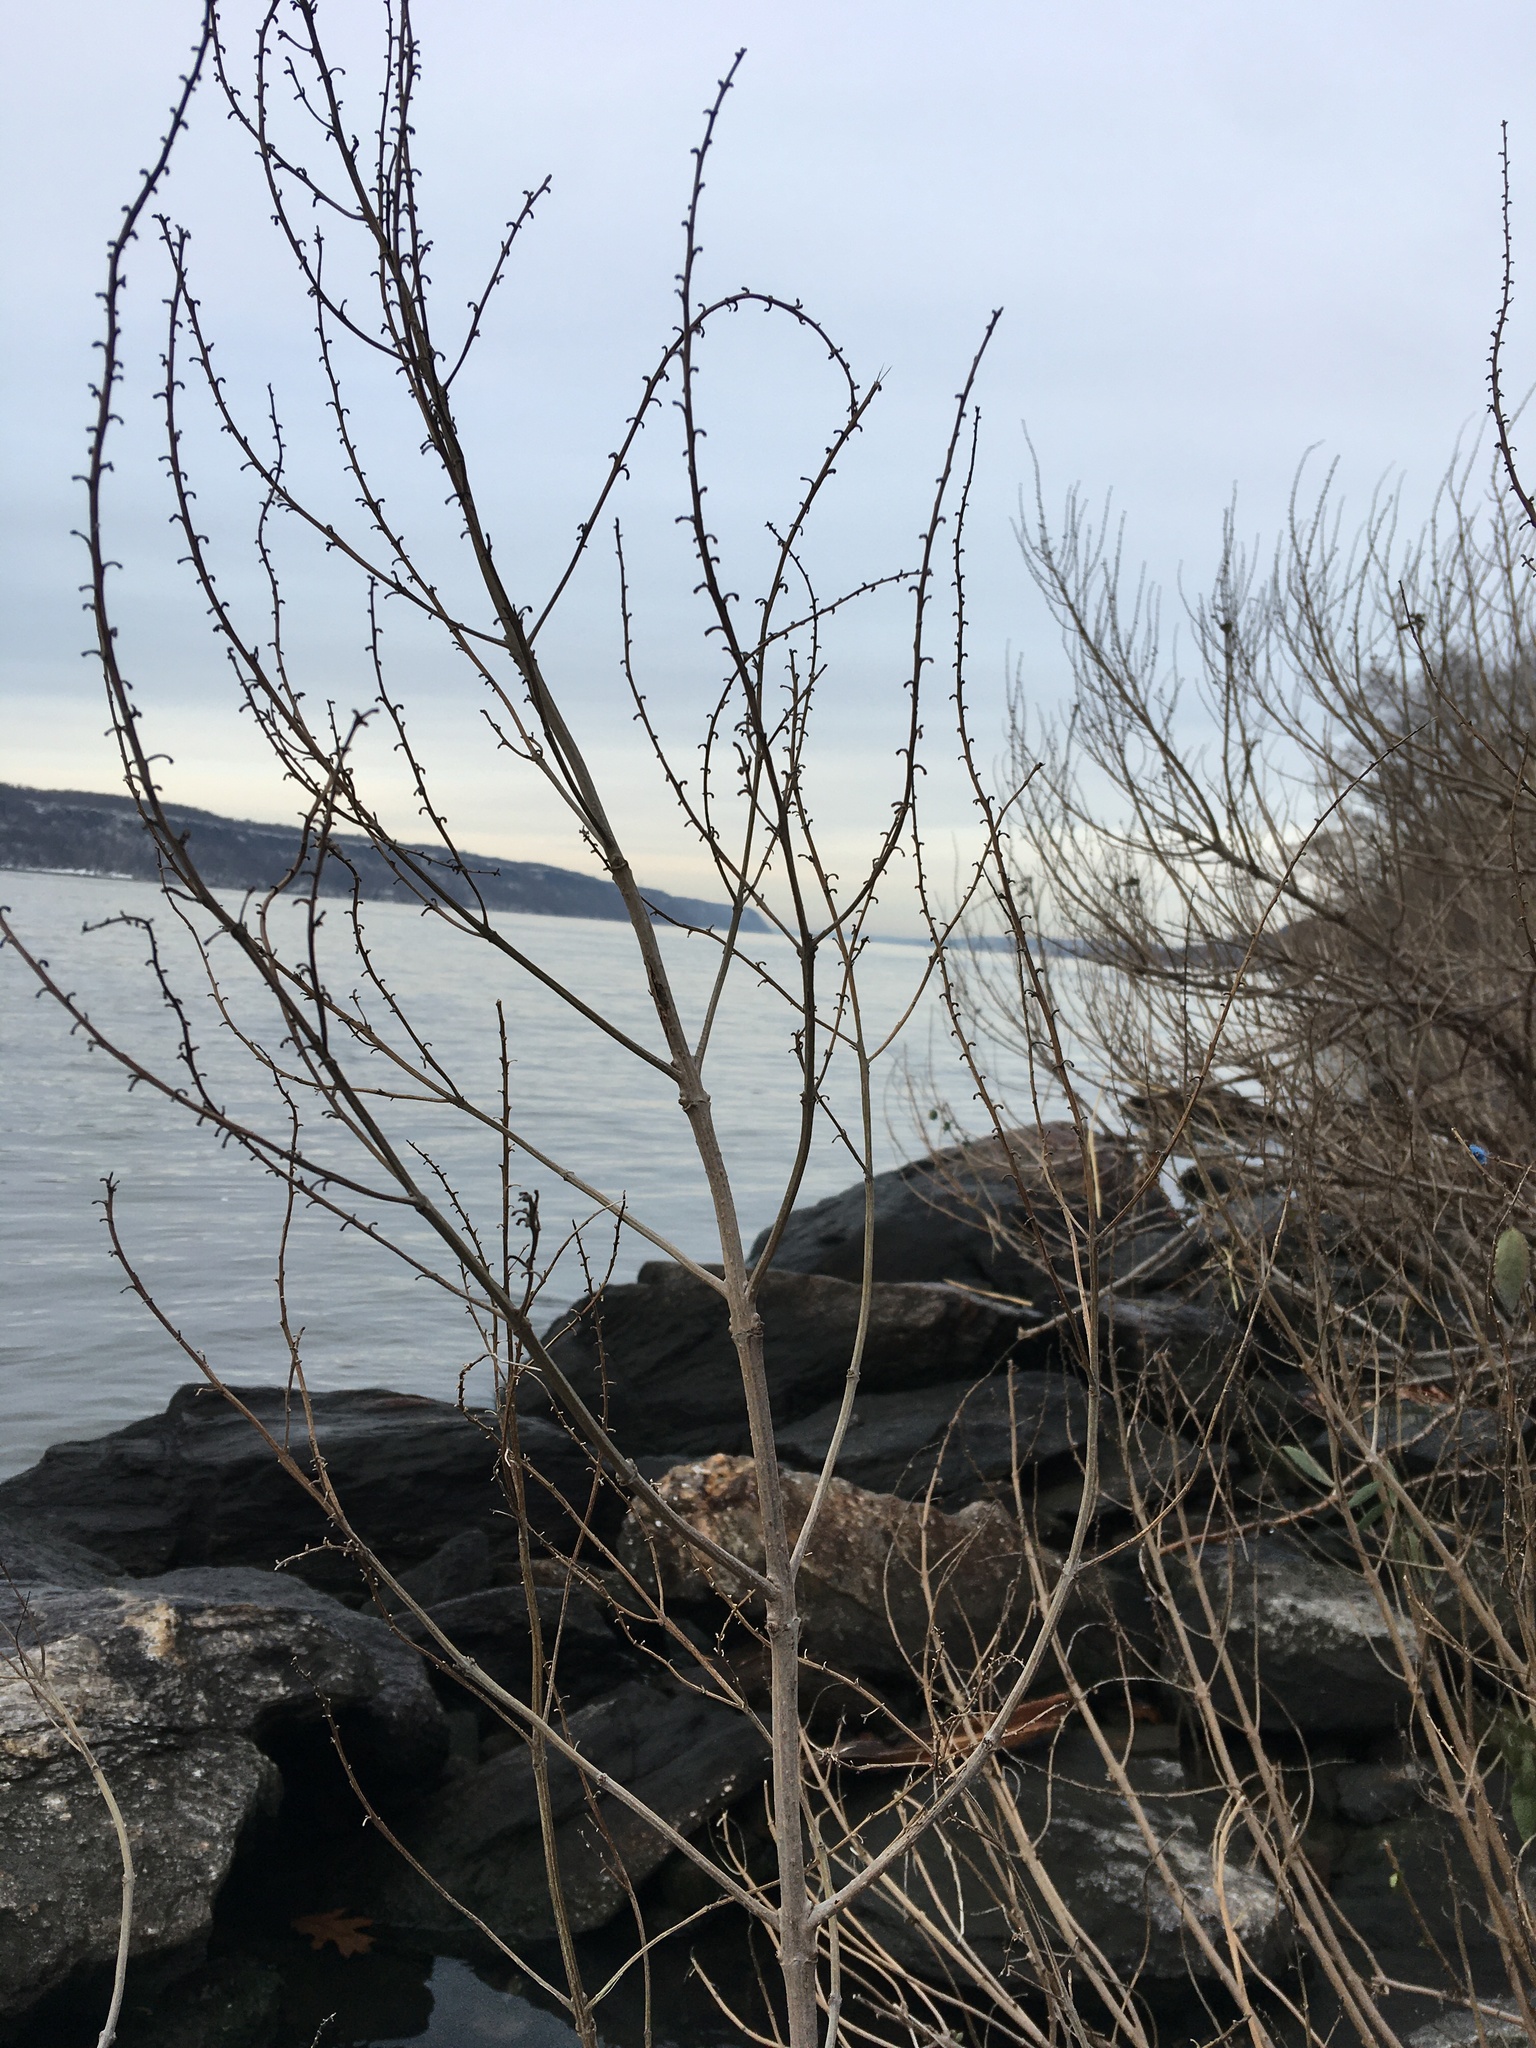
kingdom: Plantae
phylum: Tracheophyta
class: Magnoliopsida
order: Asterales
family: Asteraceae
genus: Iva
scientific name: Iva frutescens
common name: Big-leaved marsh-elder
